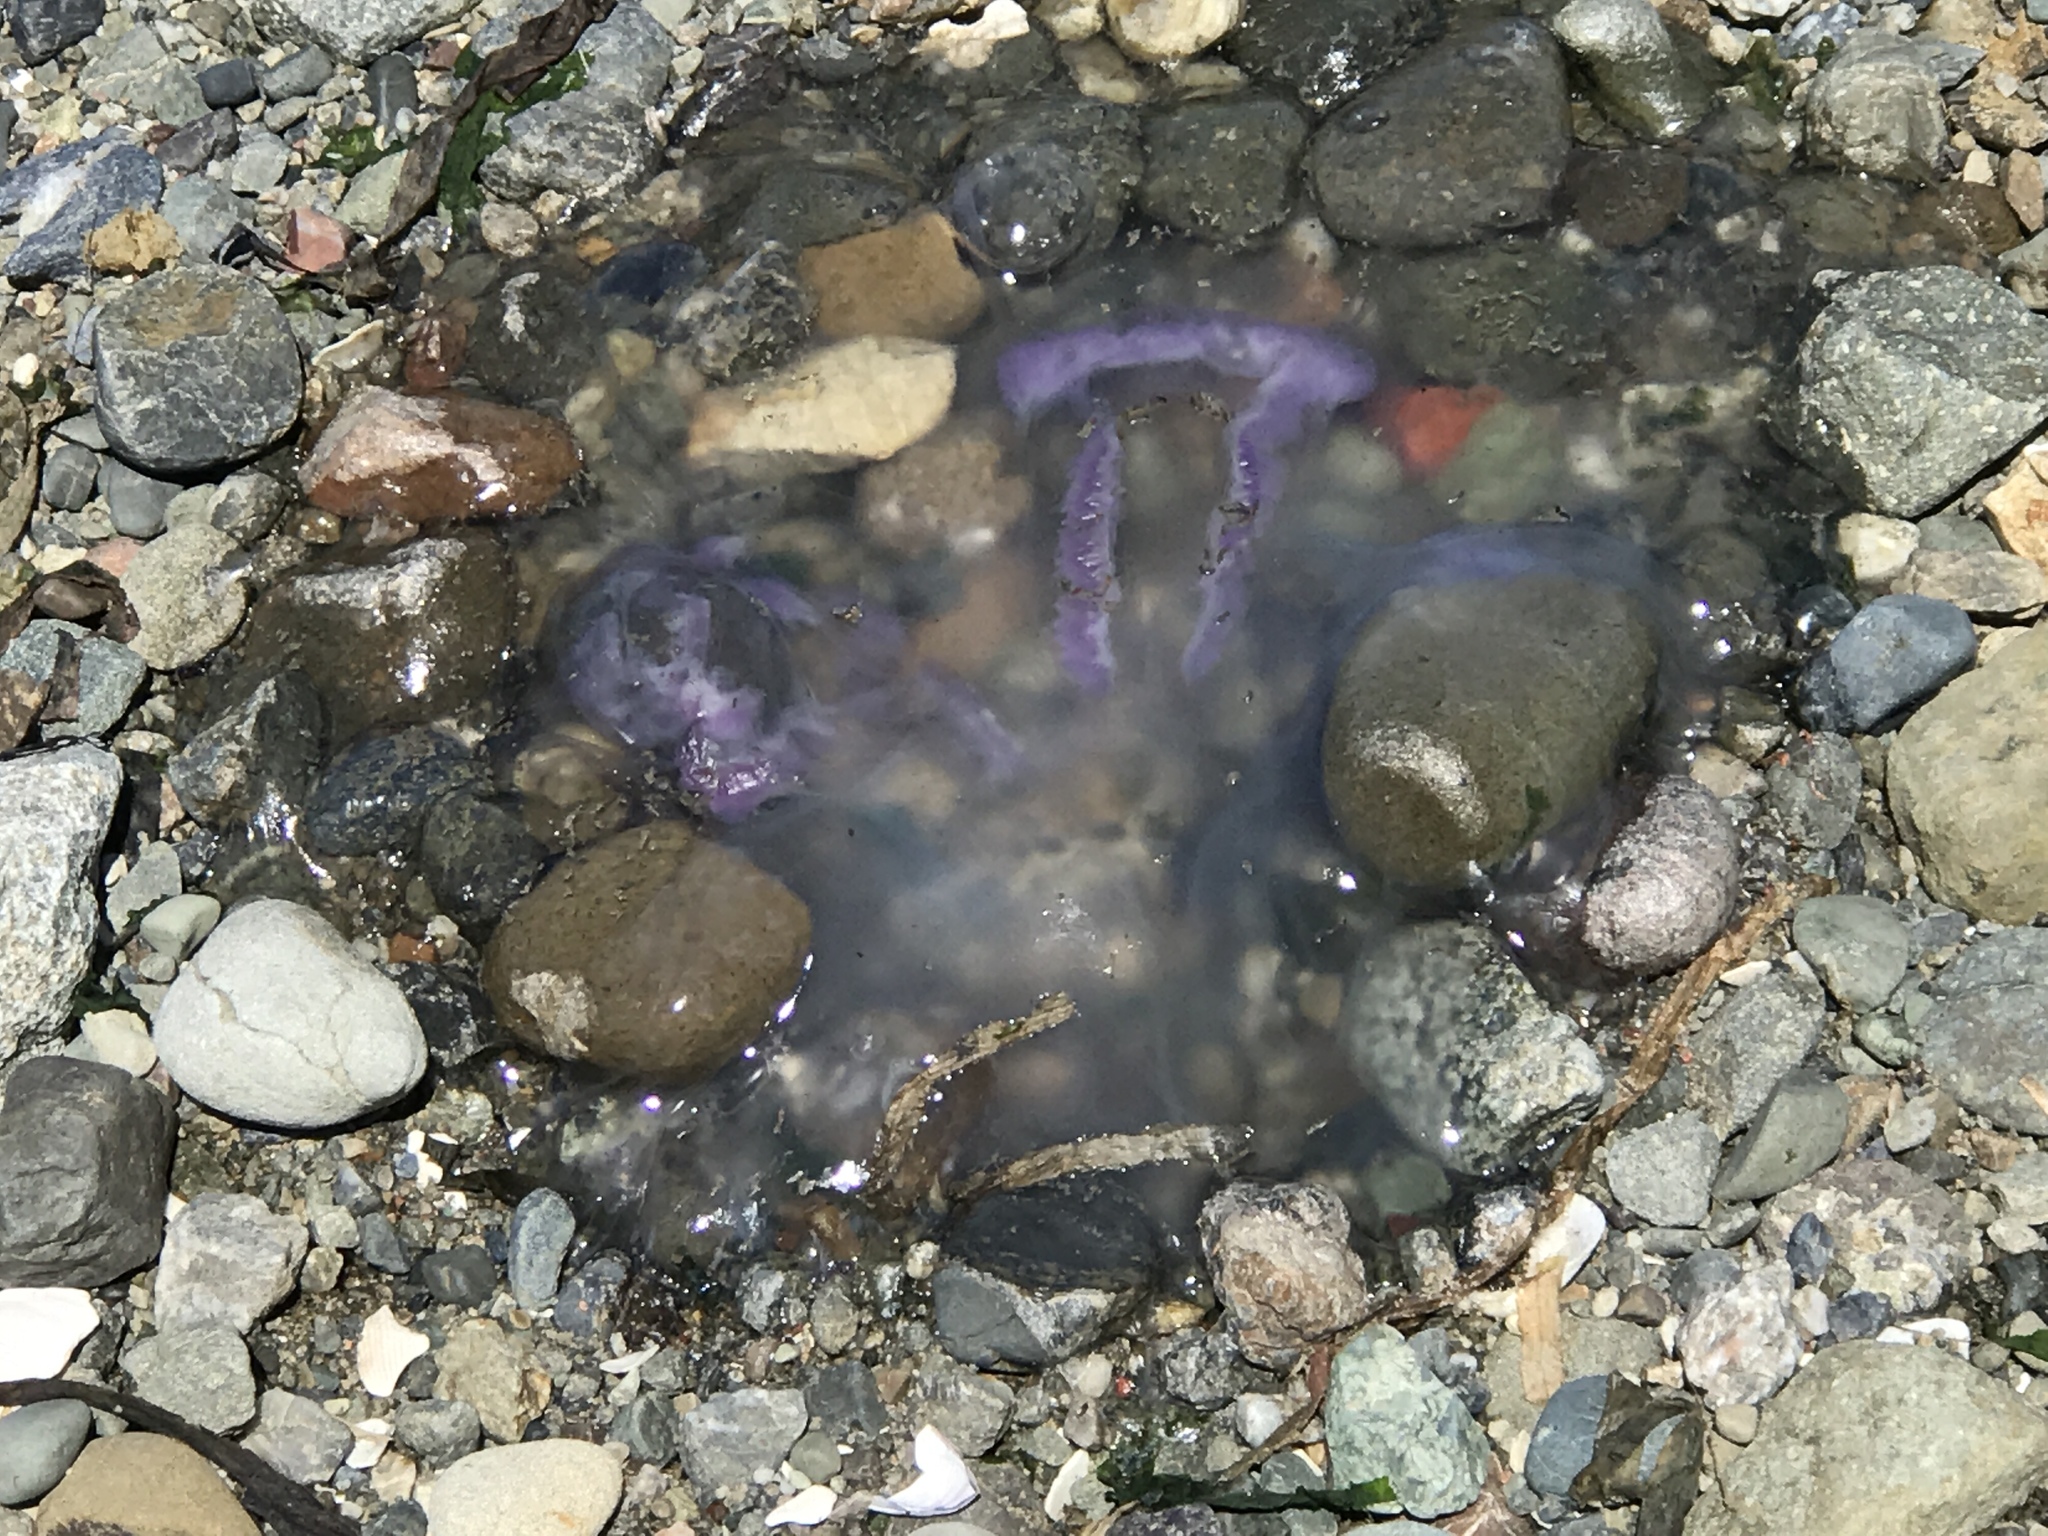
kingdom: Animalia
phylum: Cnidaria
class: Scyphozoa
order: Semaeostomeae
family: Ulmaridae
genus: Aurelia
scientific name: Aurelia labiata
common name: Pacific moon jelly
